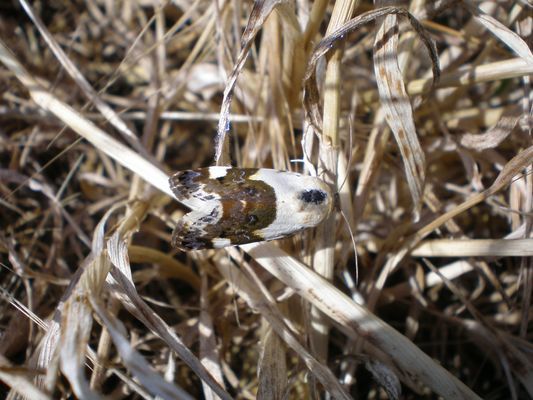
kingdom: Animalia
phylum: Arthropoda
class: Insecta
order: Lepidoptera
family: Noctuidae
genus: Acontia
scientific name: Acontia lucida
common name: Pale shoulder
